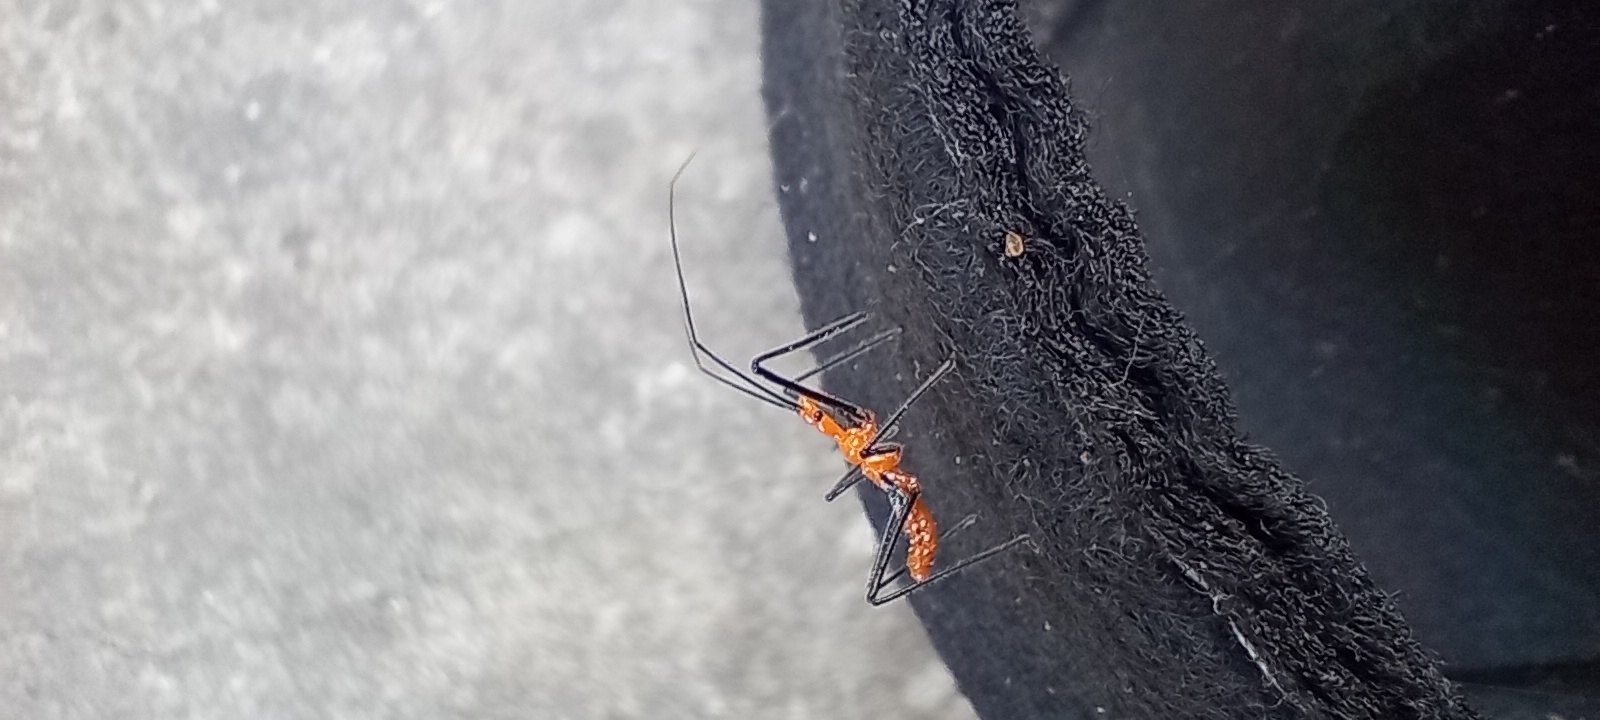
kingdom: Animalia
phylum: Arthropoda
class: Insecta
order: Hemiptera
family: Reduviidae
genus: Zelus
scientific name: Zelus longipes
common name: Milkweed assassin bug
